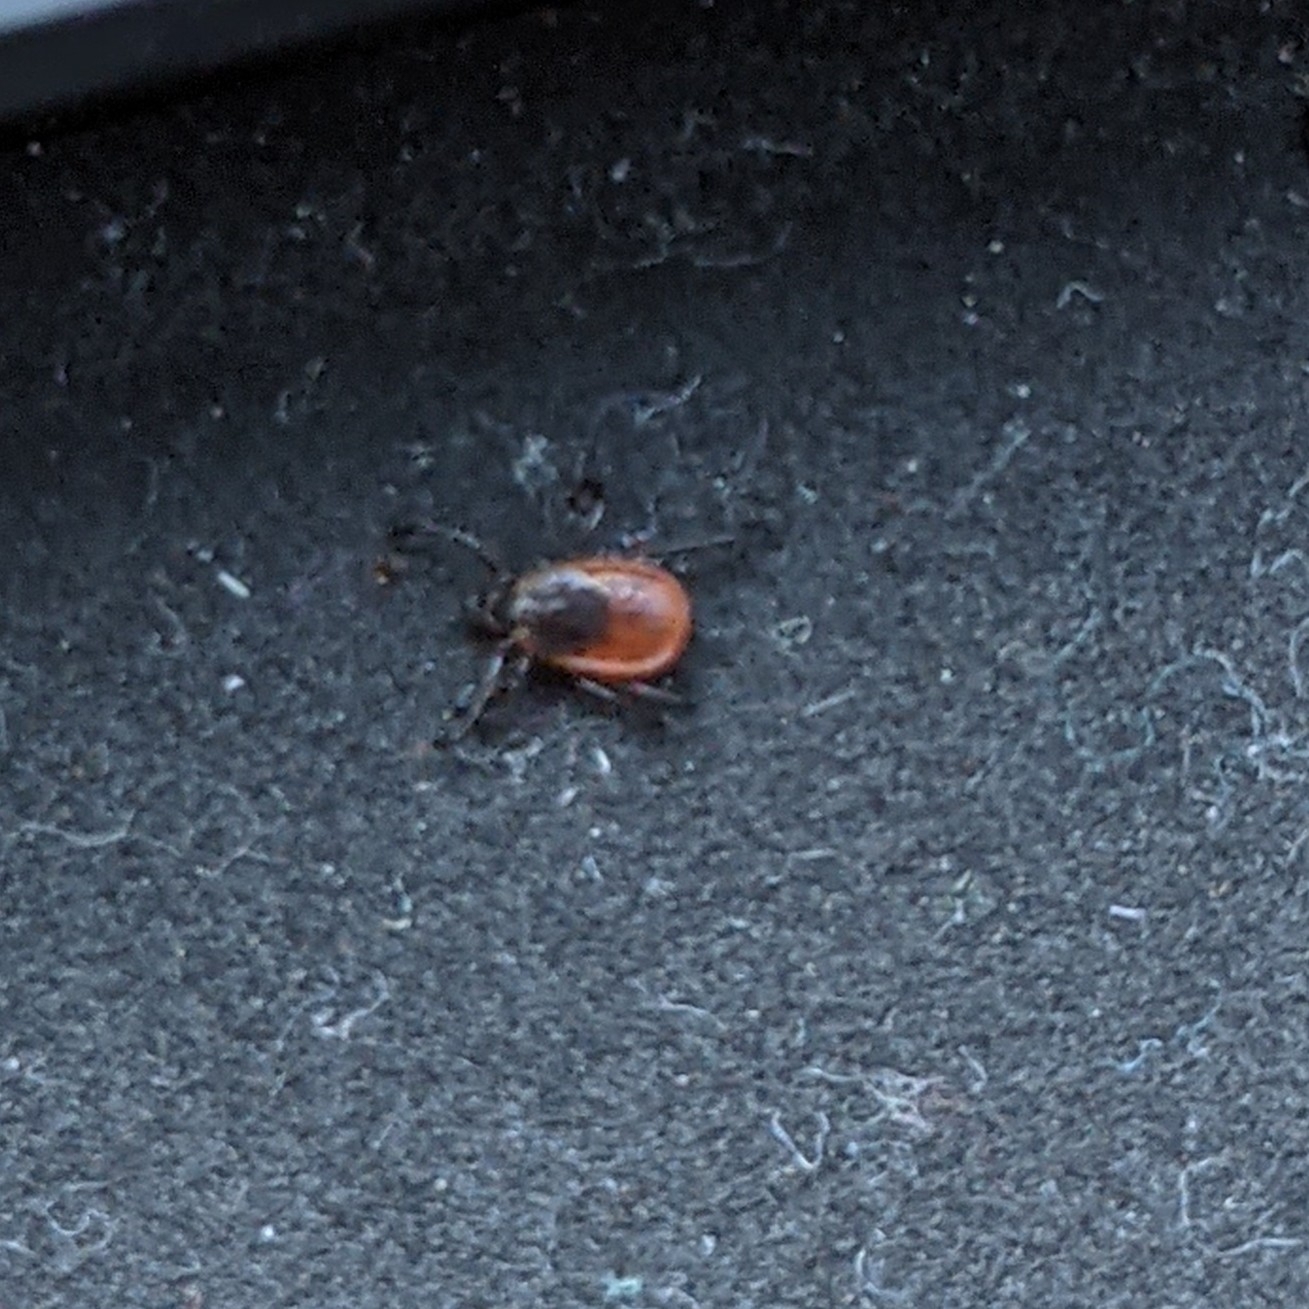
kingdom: Animalia
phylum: Arthropoda
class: Arachnida
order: Ixodida
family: Ixodidae
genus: Ixodes
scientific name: Ixodes scapularis
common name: Black legged tick
